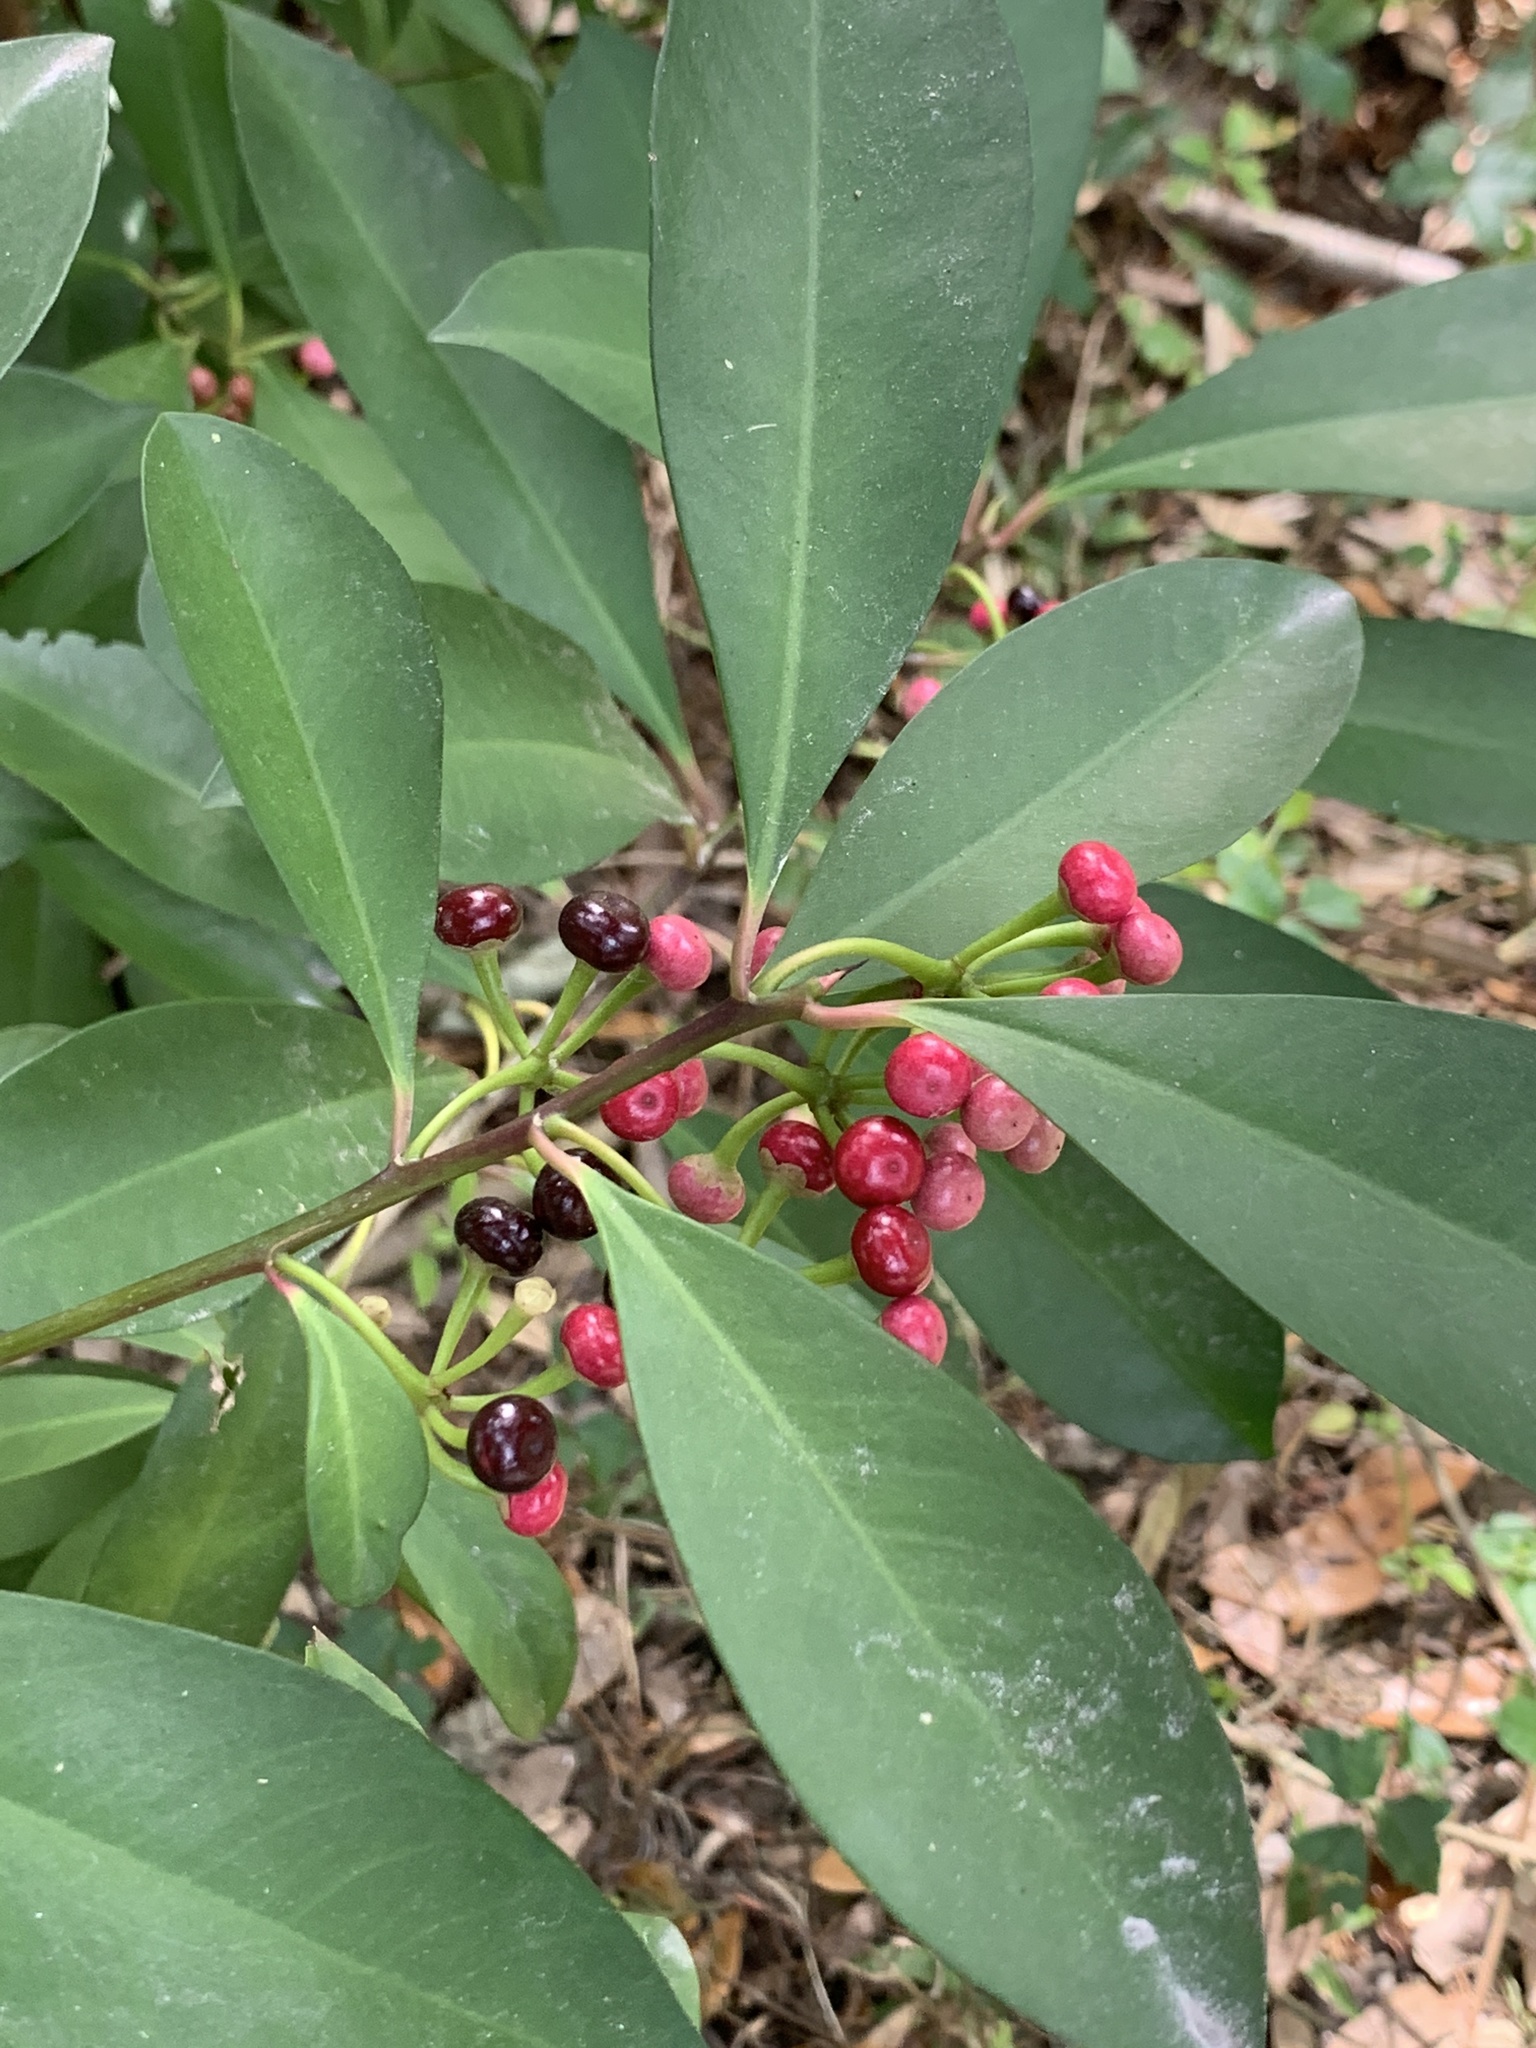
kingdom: Plantae
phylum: Tracheophyta
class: Magnoliopsida
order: Ericales
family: Primulaceae
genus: Ardisia
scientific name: Ardisia elliptica
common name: Shoebutton
